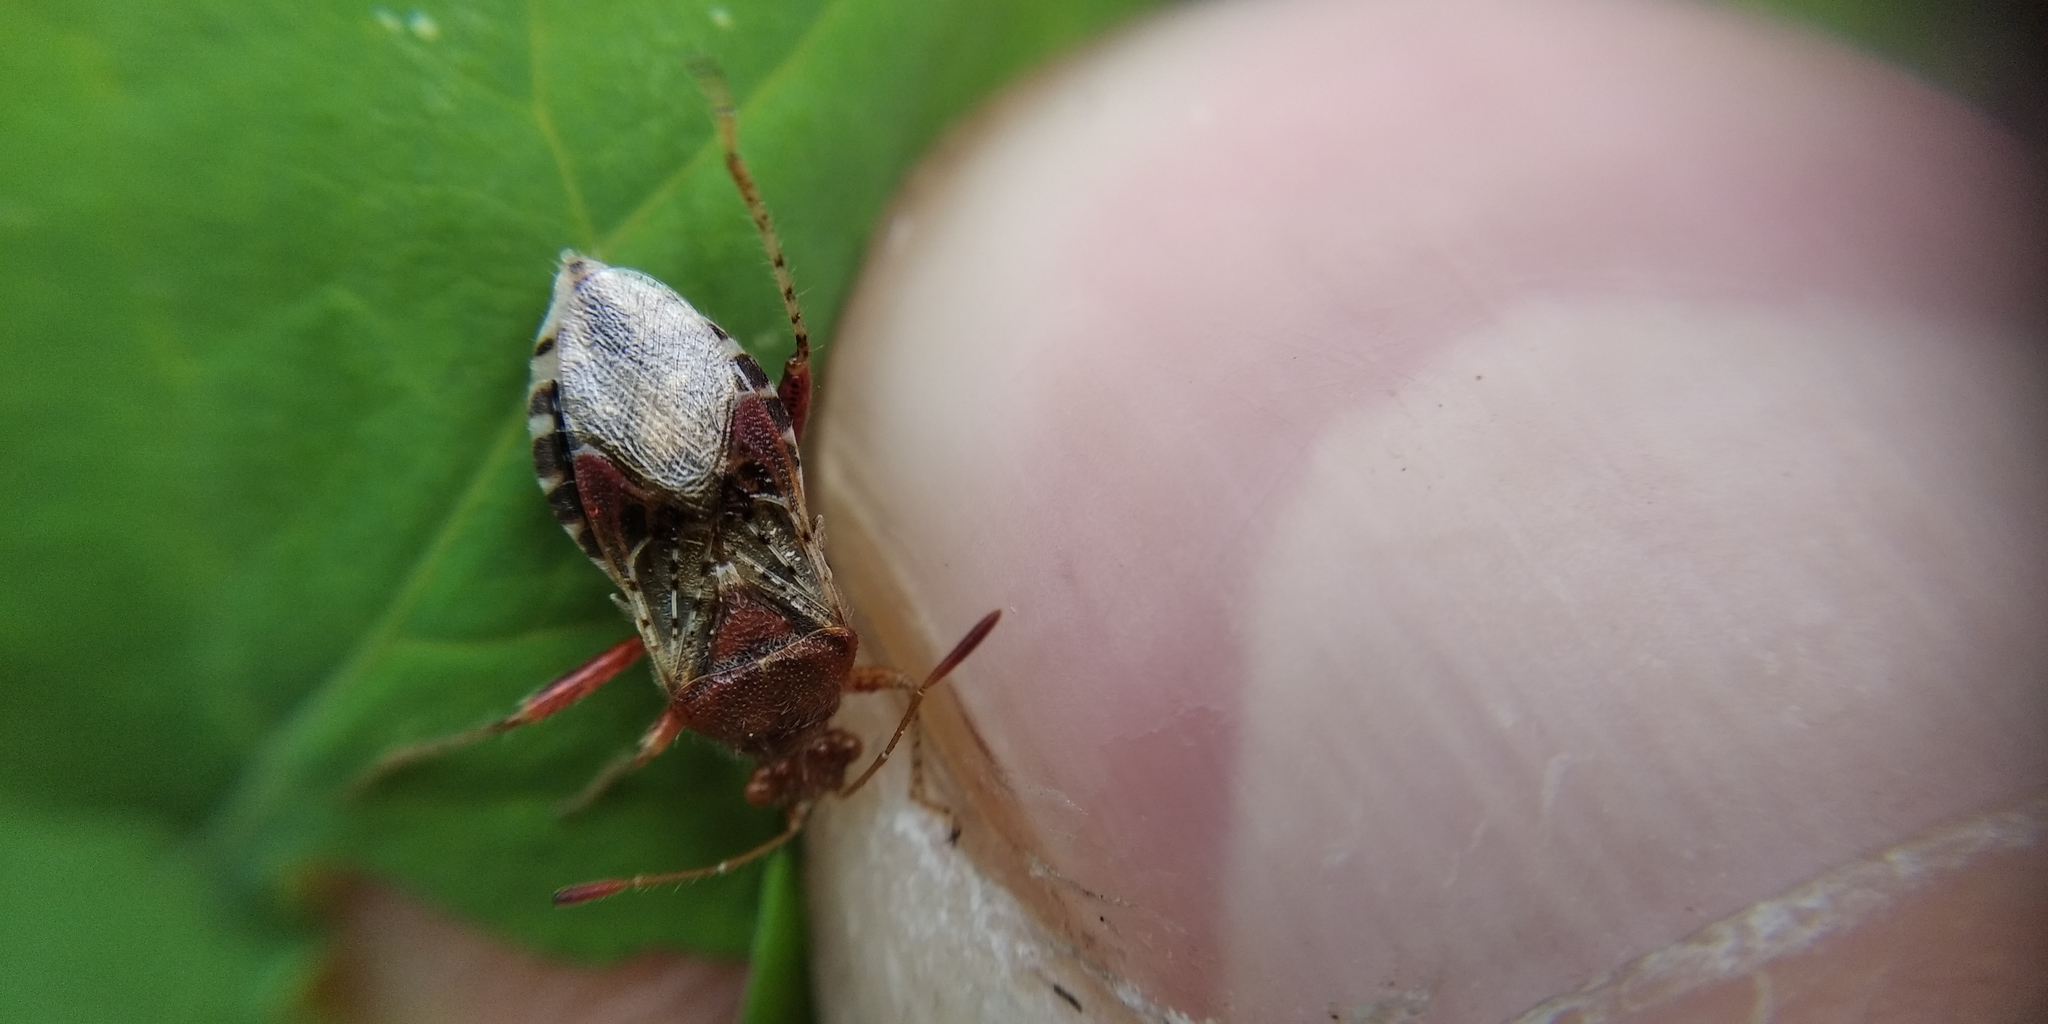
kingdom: Animalia
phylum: Arthropoda
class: Insecta
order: Hemiptera
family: Rhopalidae
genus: Rhopalus
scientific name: Rhopalus subrufus
